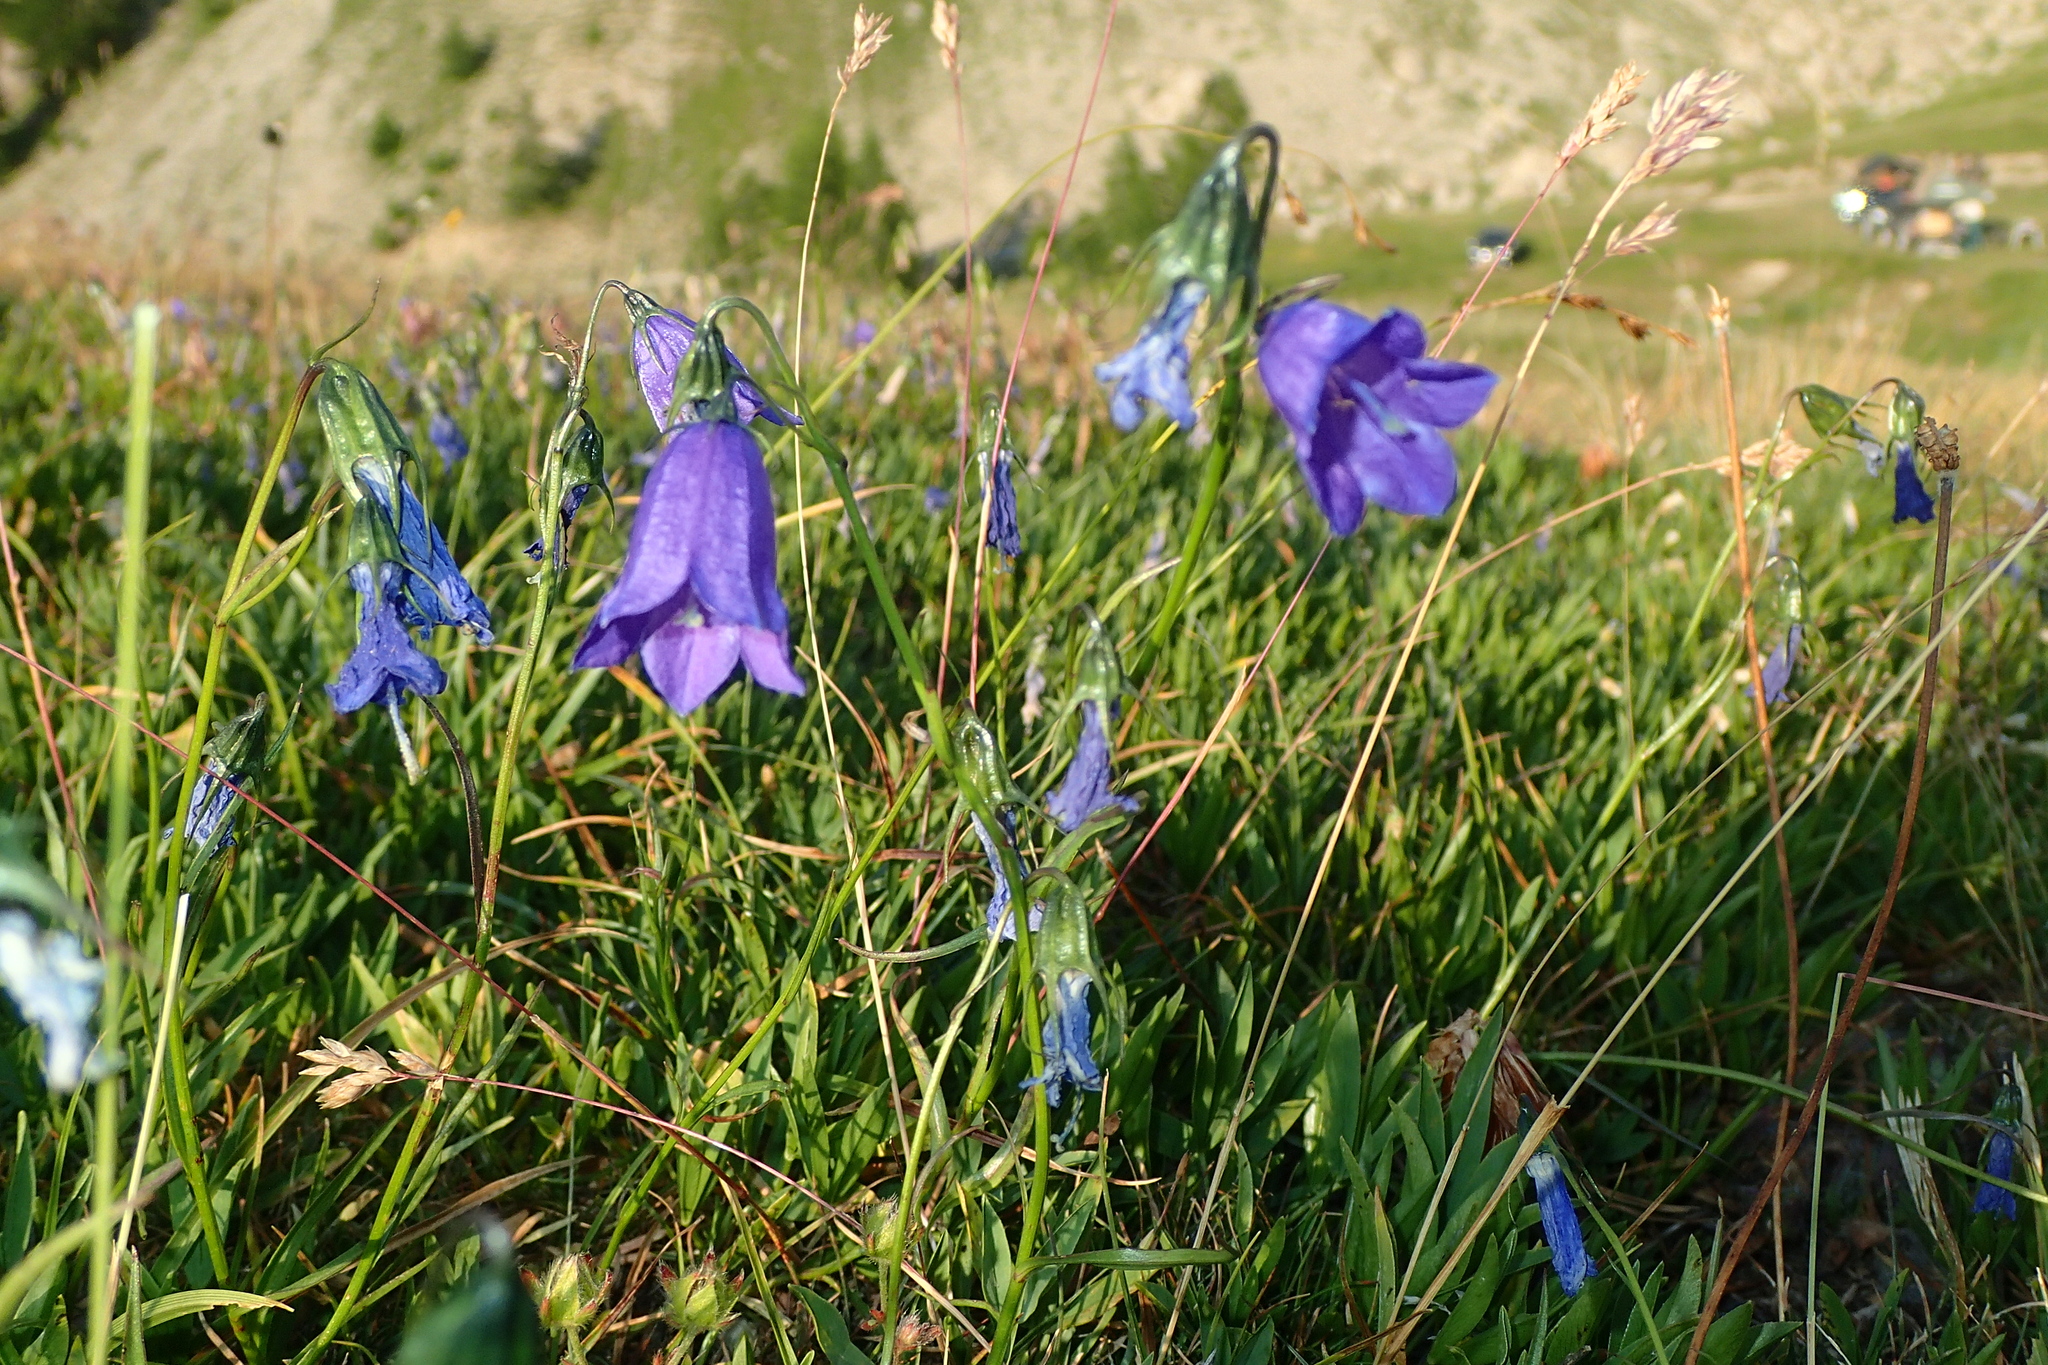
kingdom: Plantae
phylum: Tracheophyta
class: Magnoliopsida
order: Asterales
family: Campanulaceae
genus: Campanula
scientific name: Campanula scheuchzeri
